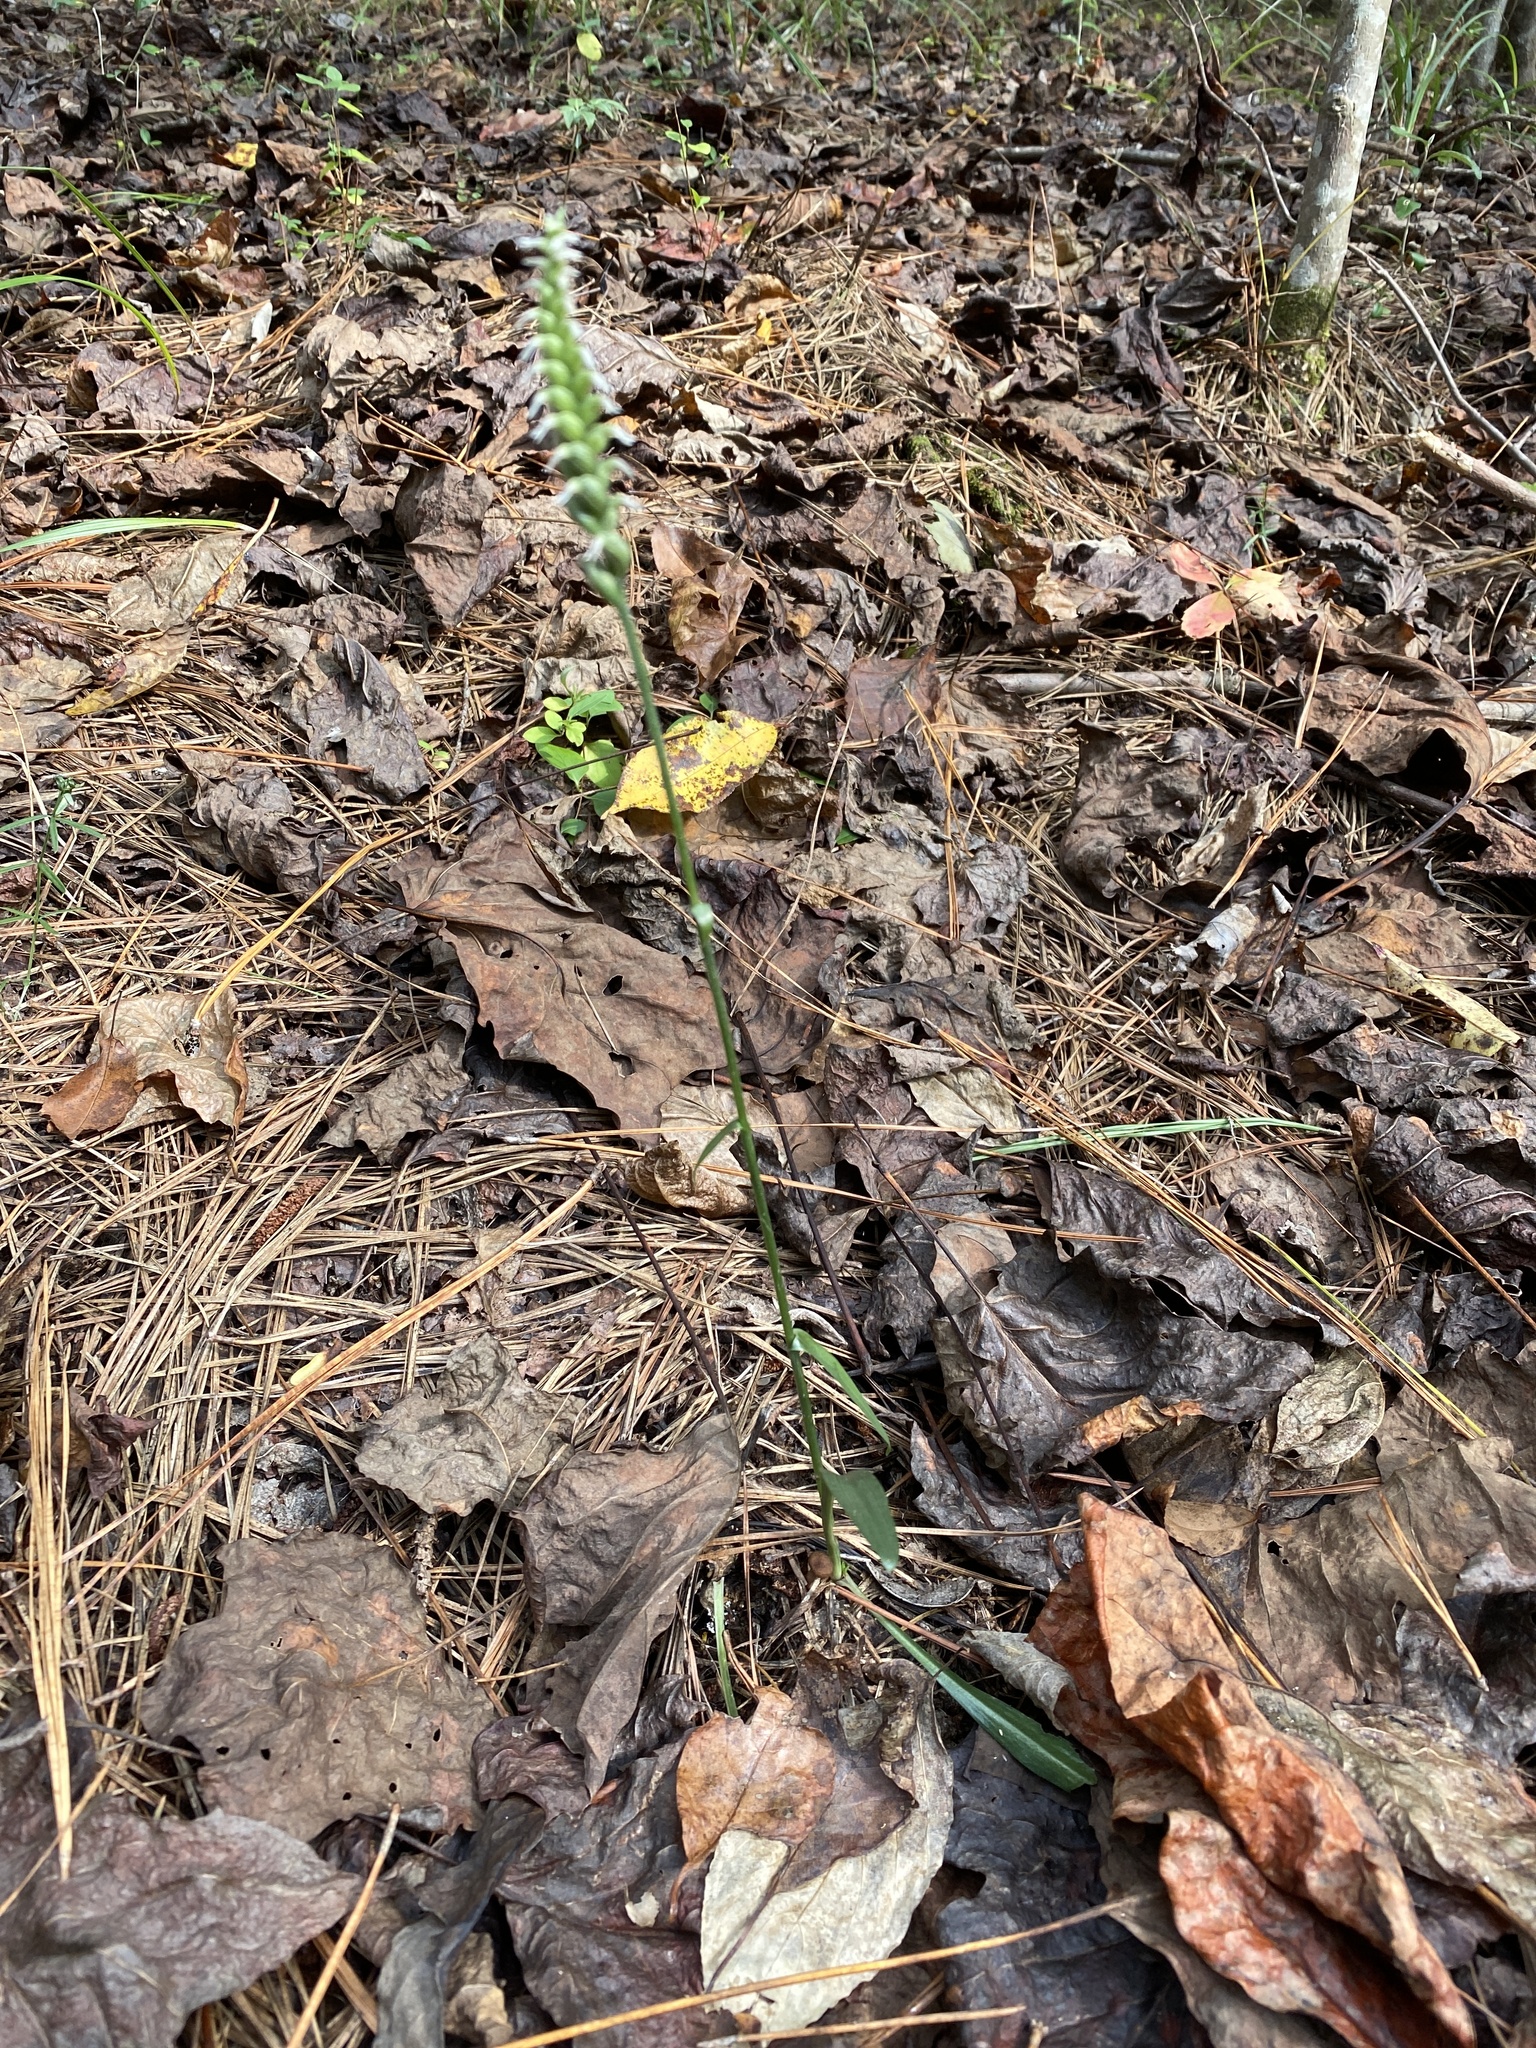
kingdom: Plantae
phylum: Tracheophyta
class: Liliopsida
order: Asparagales
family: Orchidaceae
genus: Spiranthes
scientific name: Spiranthes ovalis
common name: October ladies'-tresses
